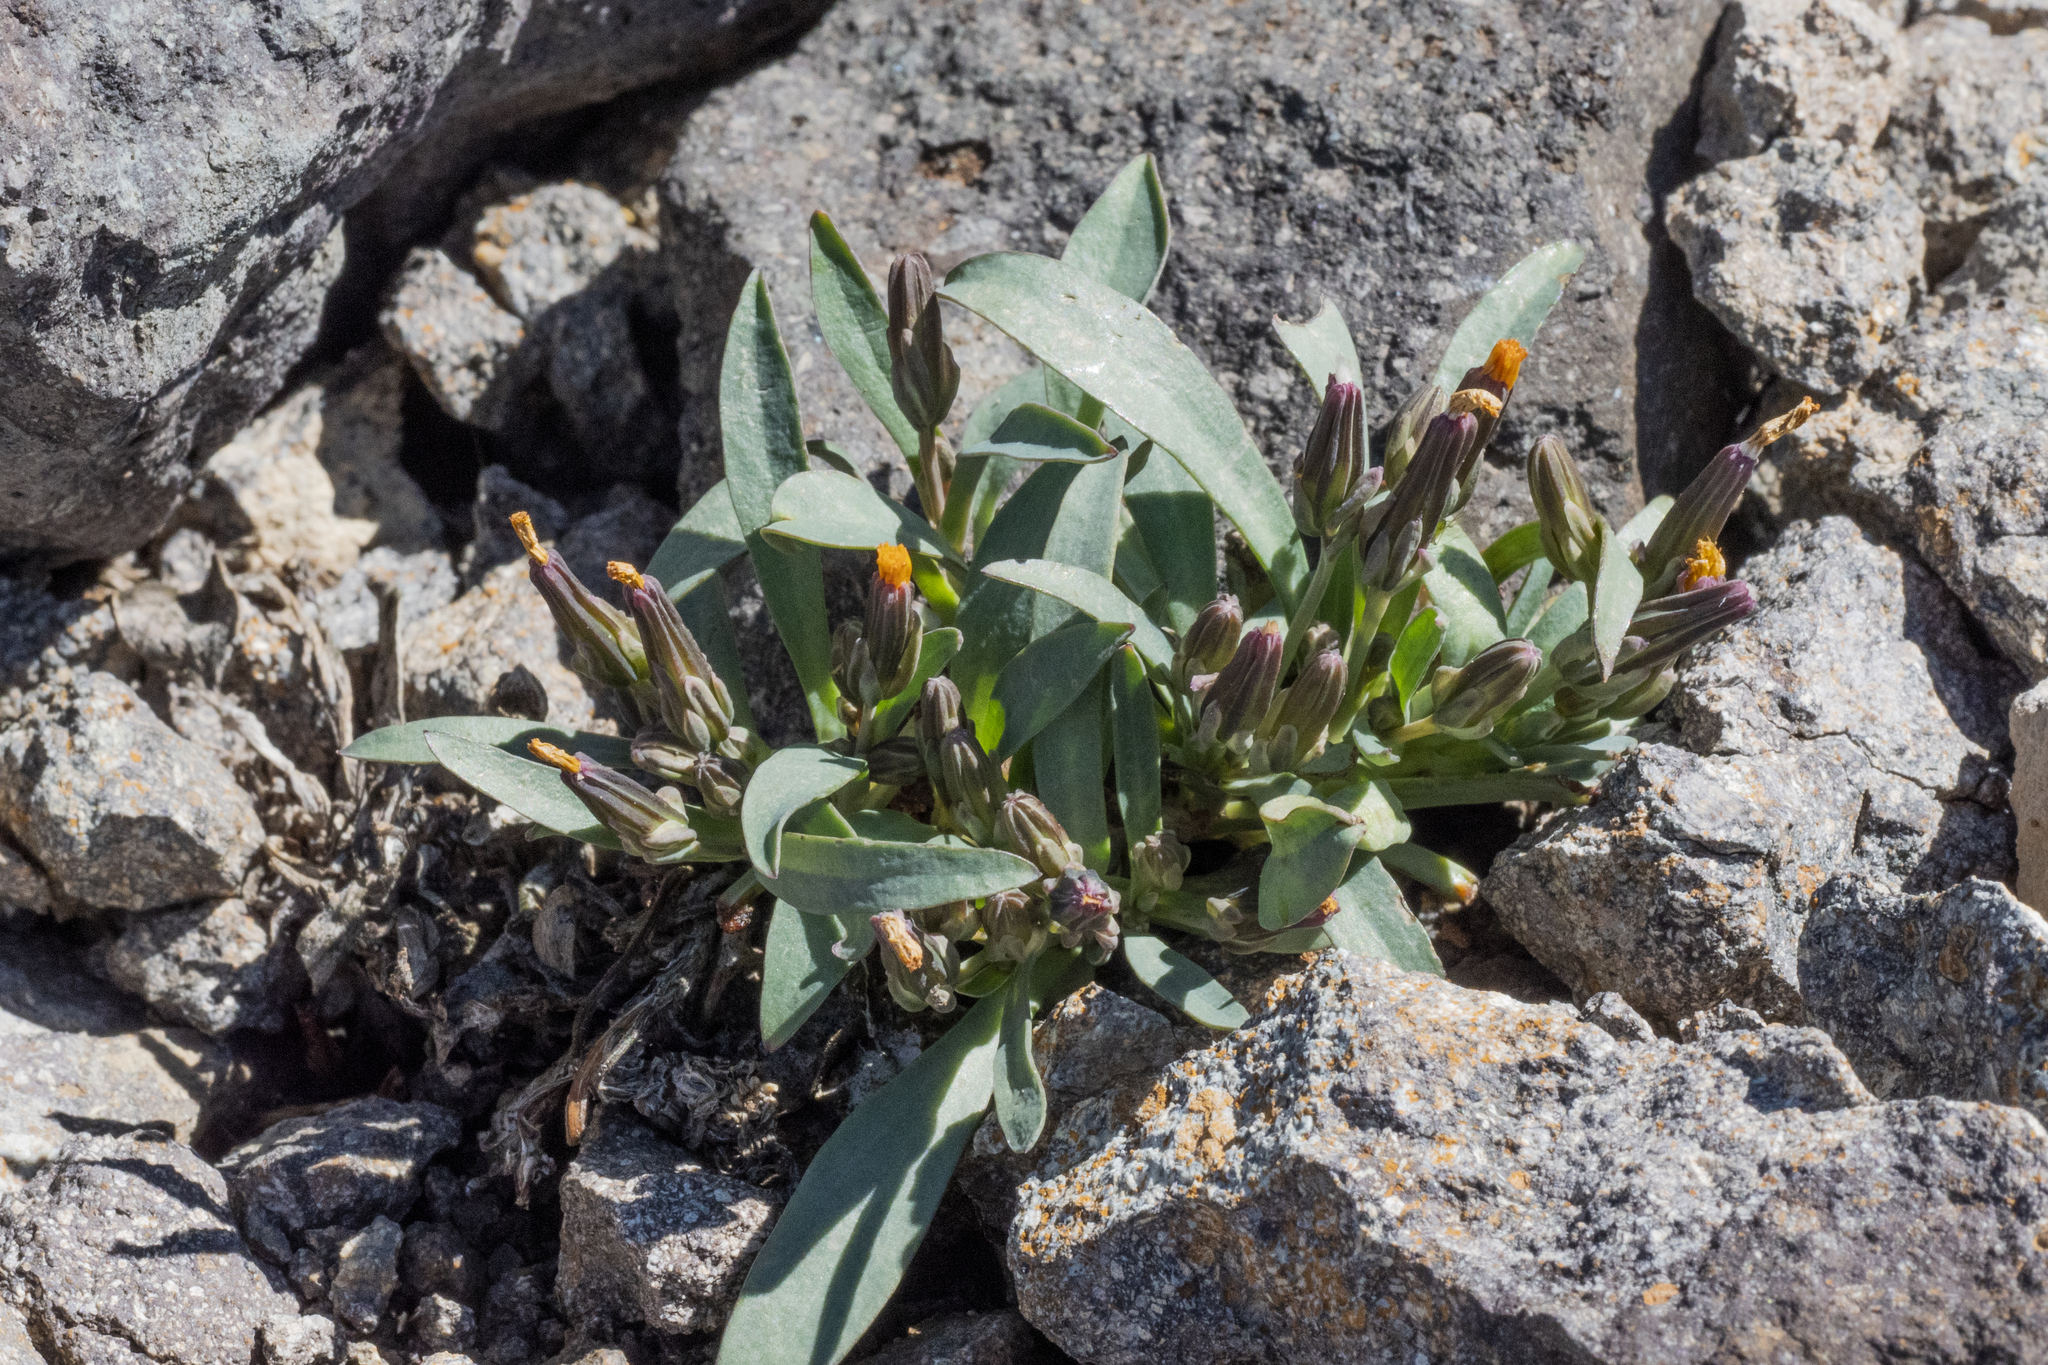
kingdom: Plantae
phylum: Tracheophyta
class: Magnoliopsida
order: Asterales
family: Asteraceae
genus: Askellia
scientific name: Askellia pygmaea
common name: Dwarf alpine hawksbeard
